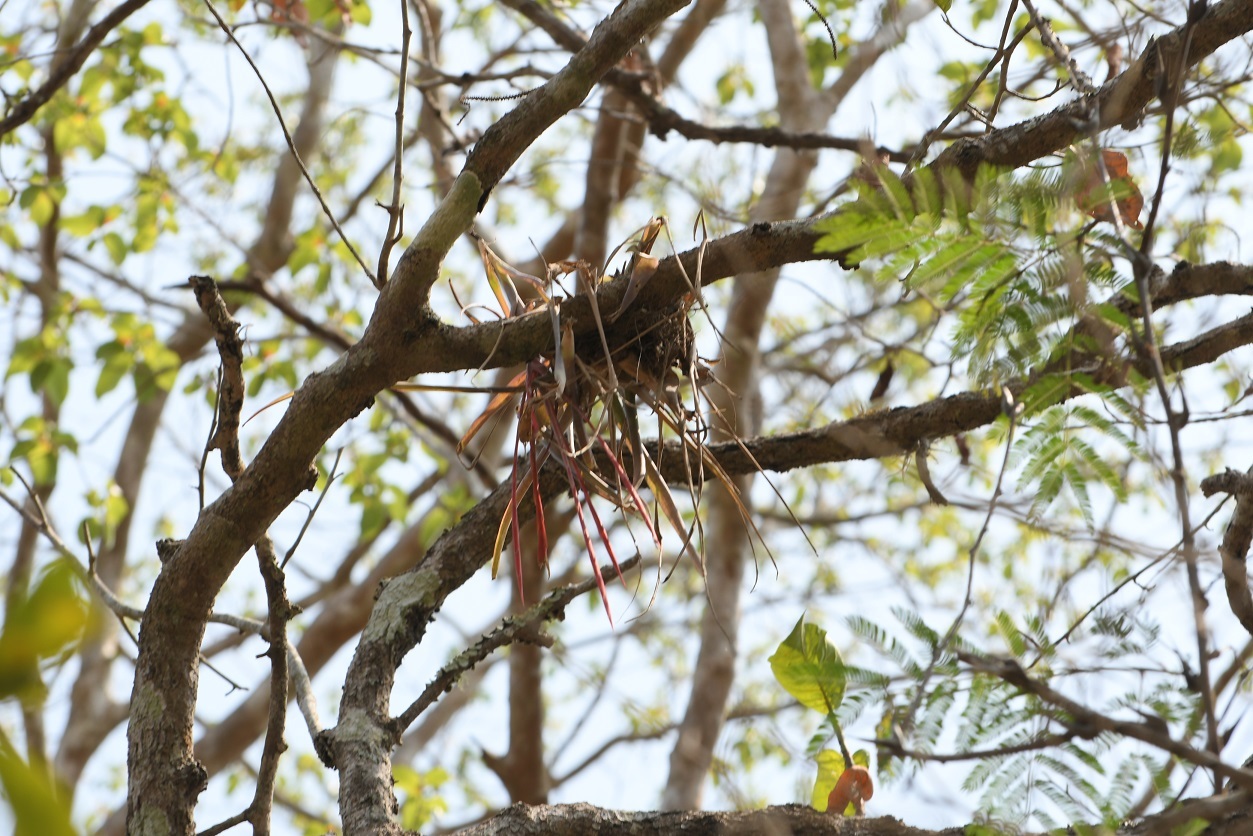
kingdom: Plantae
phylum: Tracheophyta
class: Liliopsida
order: Poales
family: Bromeliaceae
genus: Tillandsia
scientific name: Tillandsia flabellata
